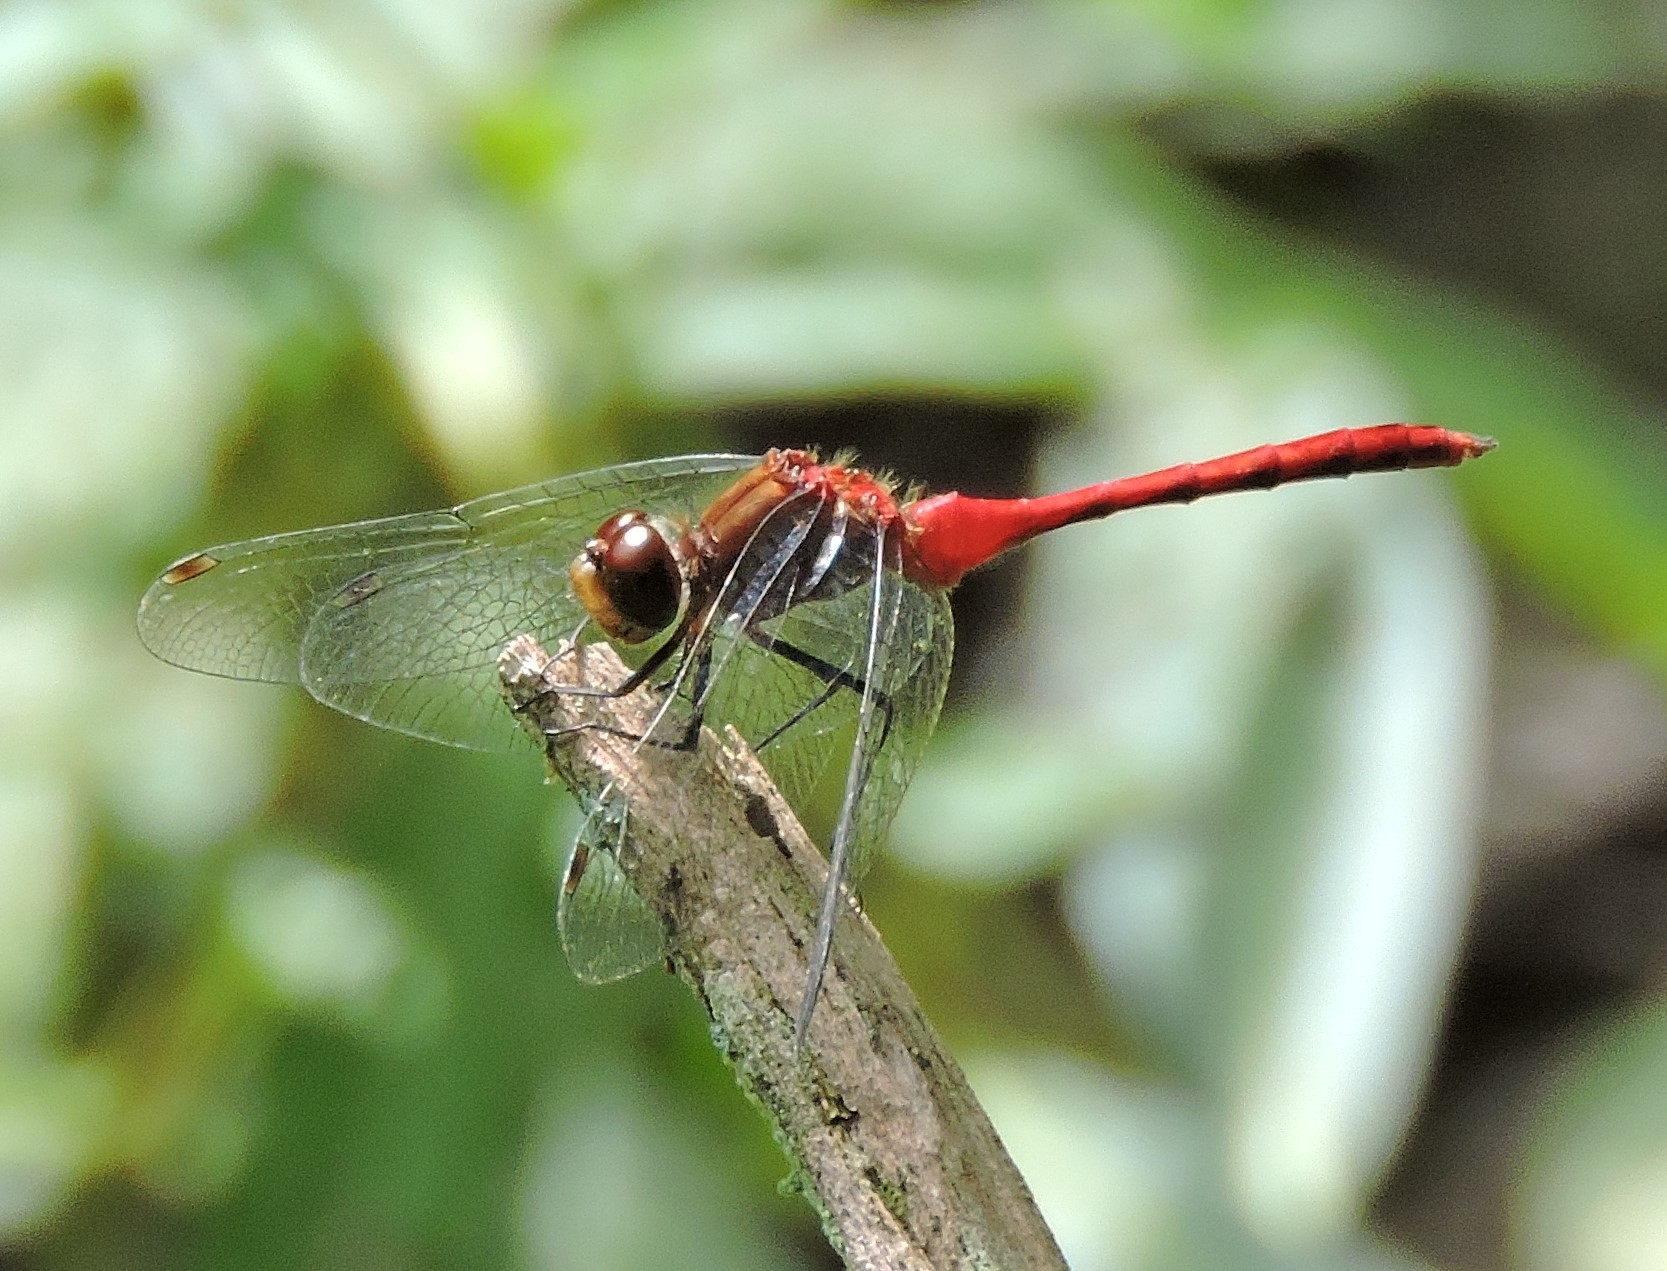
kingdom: Animalia
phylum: Arthropoda
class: Insecta
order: Odonata
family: Libellulidae
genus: Sympetrum
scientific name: Sympetrum
